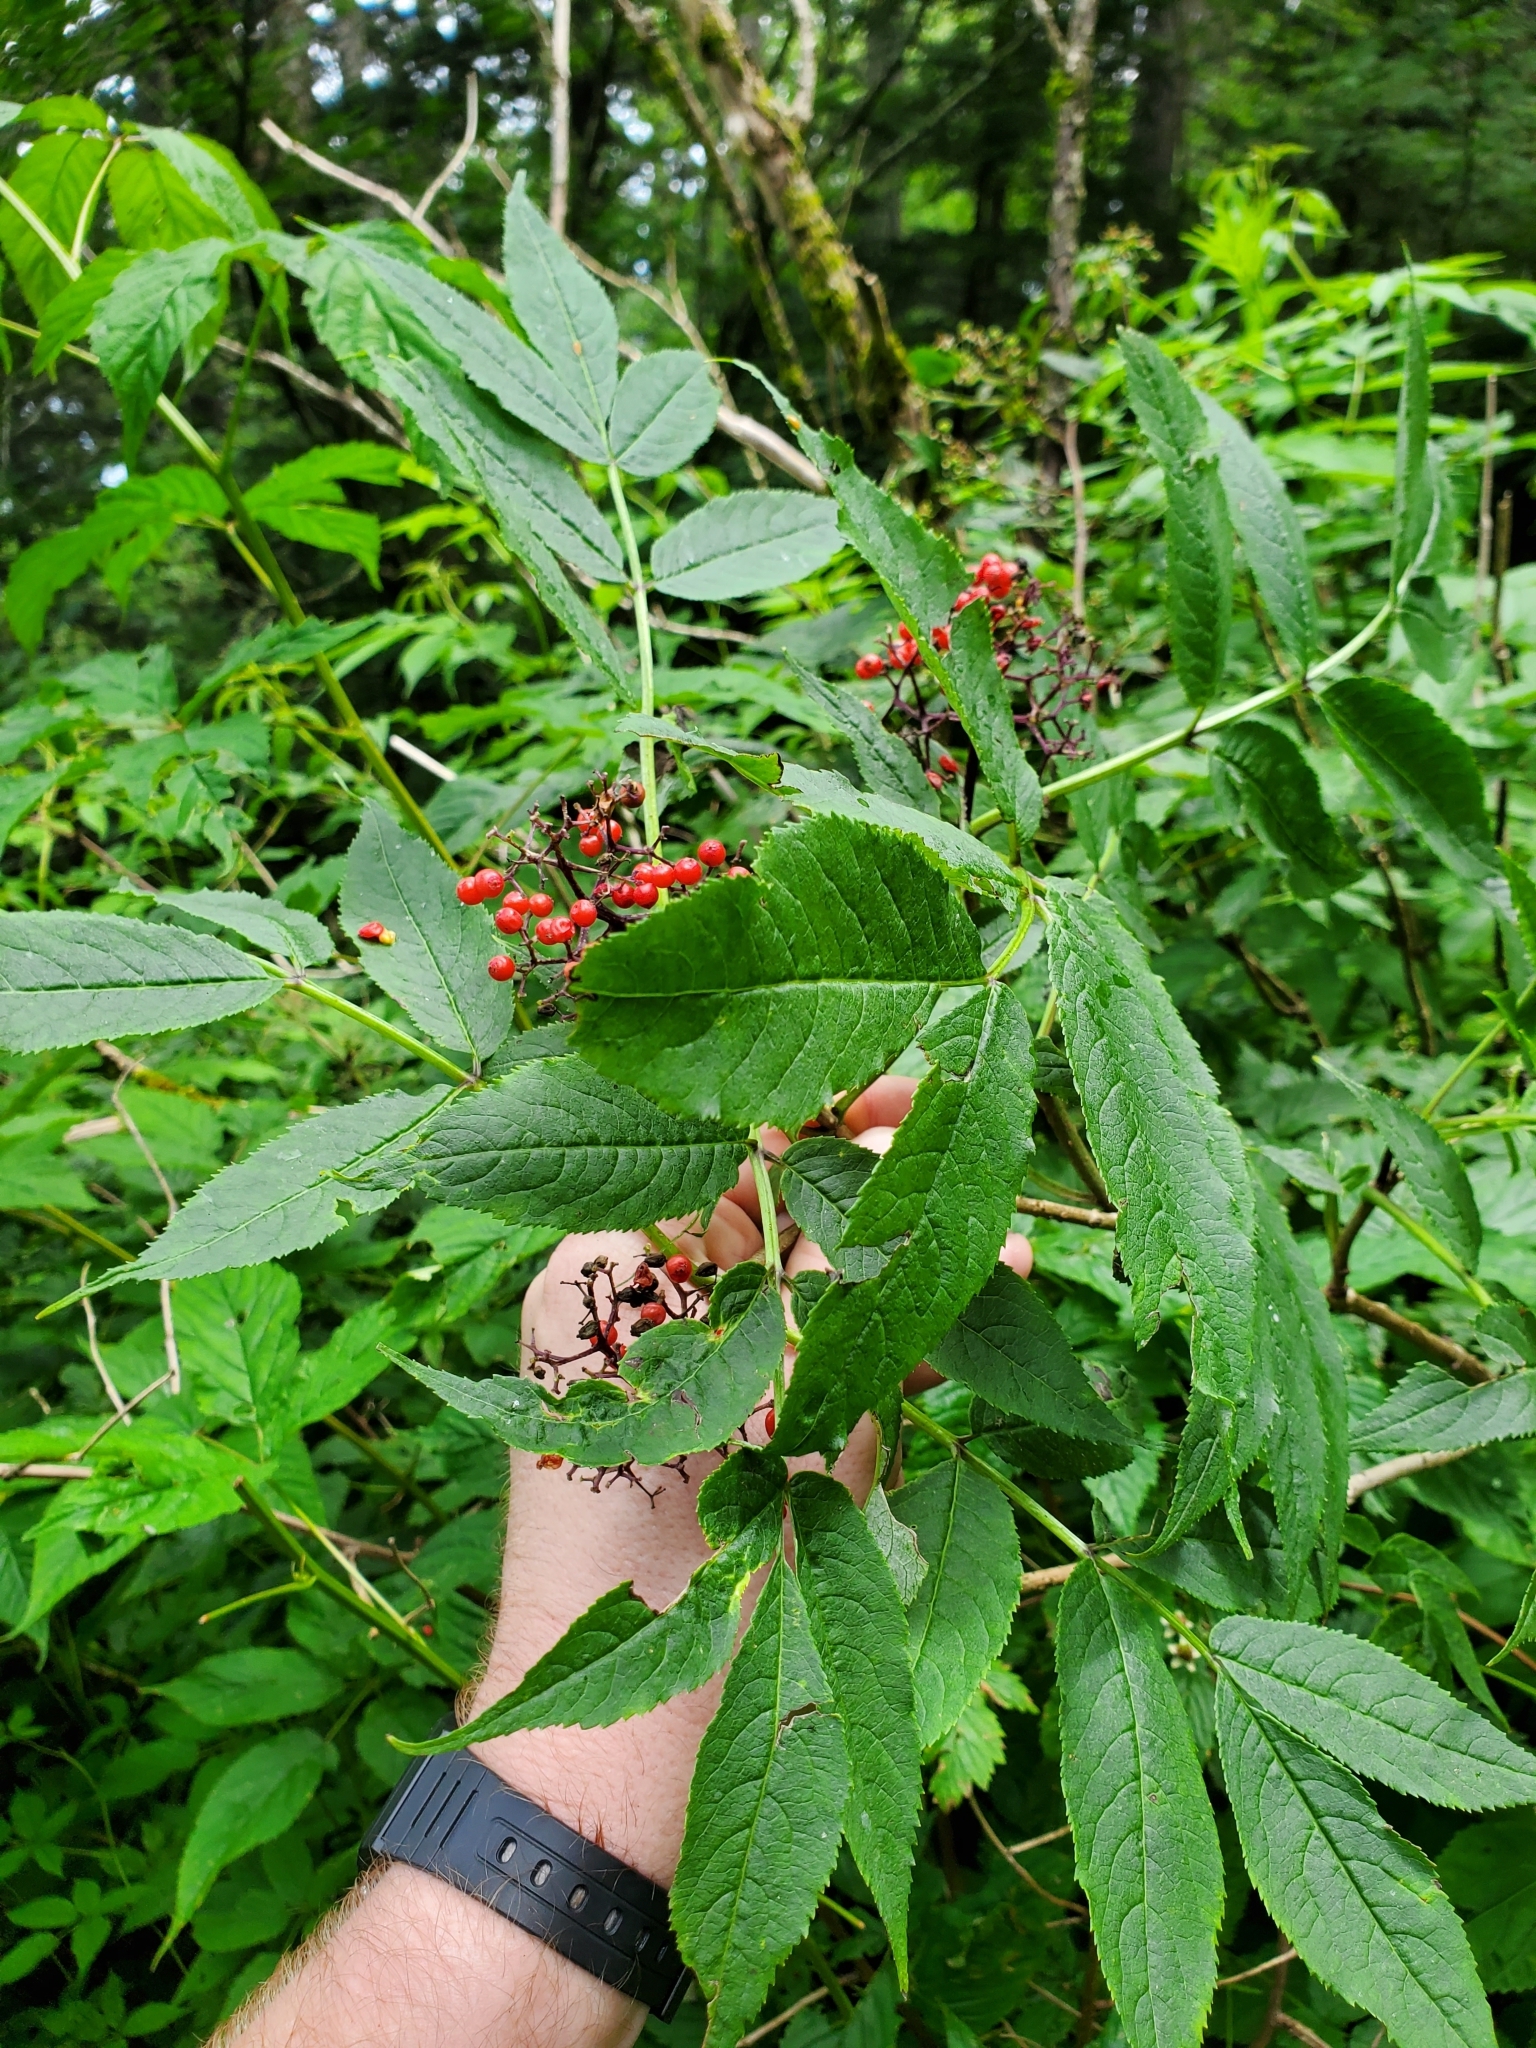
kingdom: Plantae
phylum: Tracheophyta
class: Magnoliopsida
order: Dipsacales
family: Viburnaceae
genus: Sambucus
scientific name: Sambucus racemosa
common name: Red-berried elder
